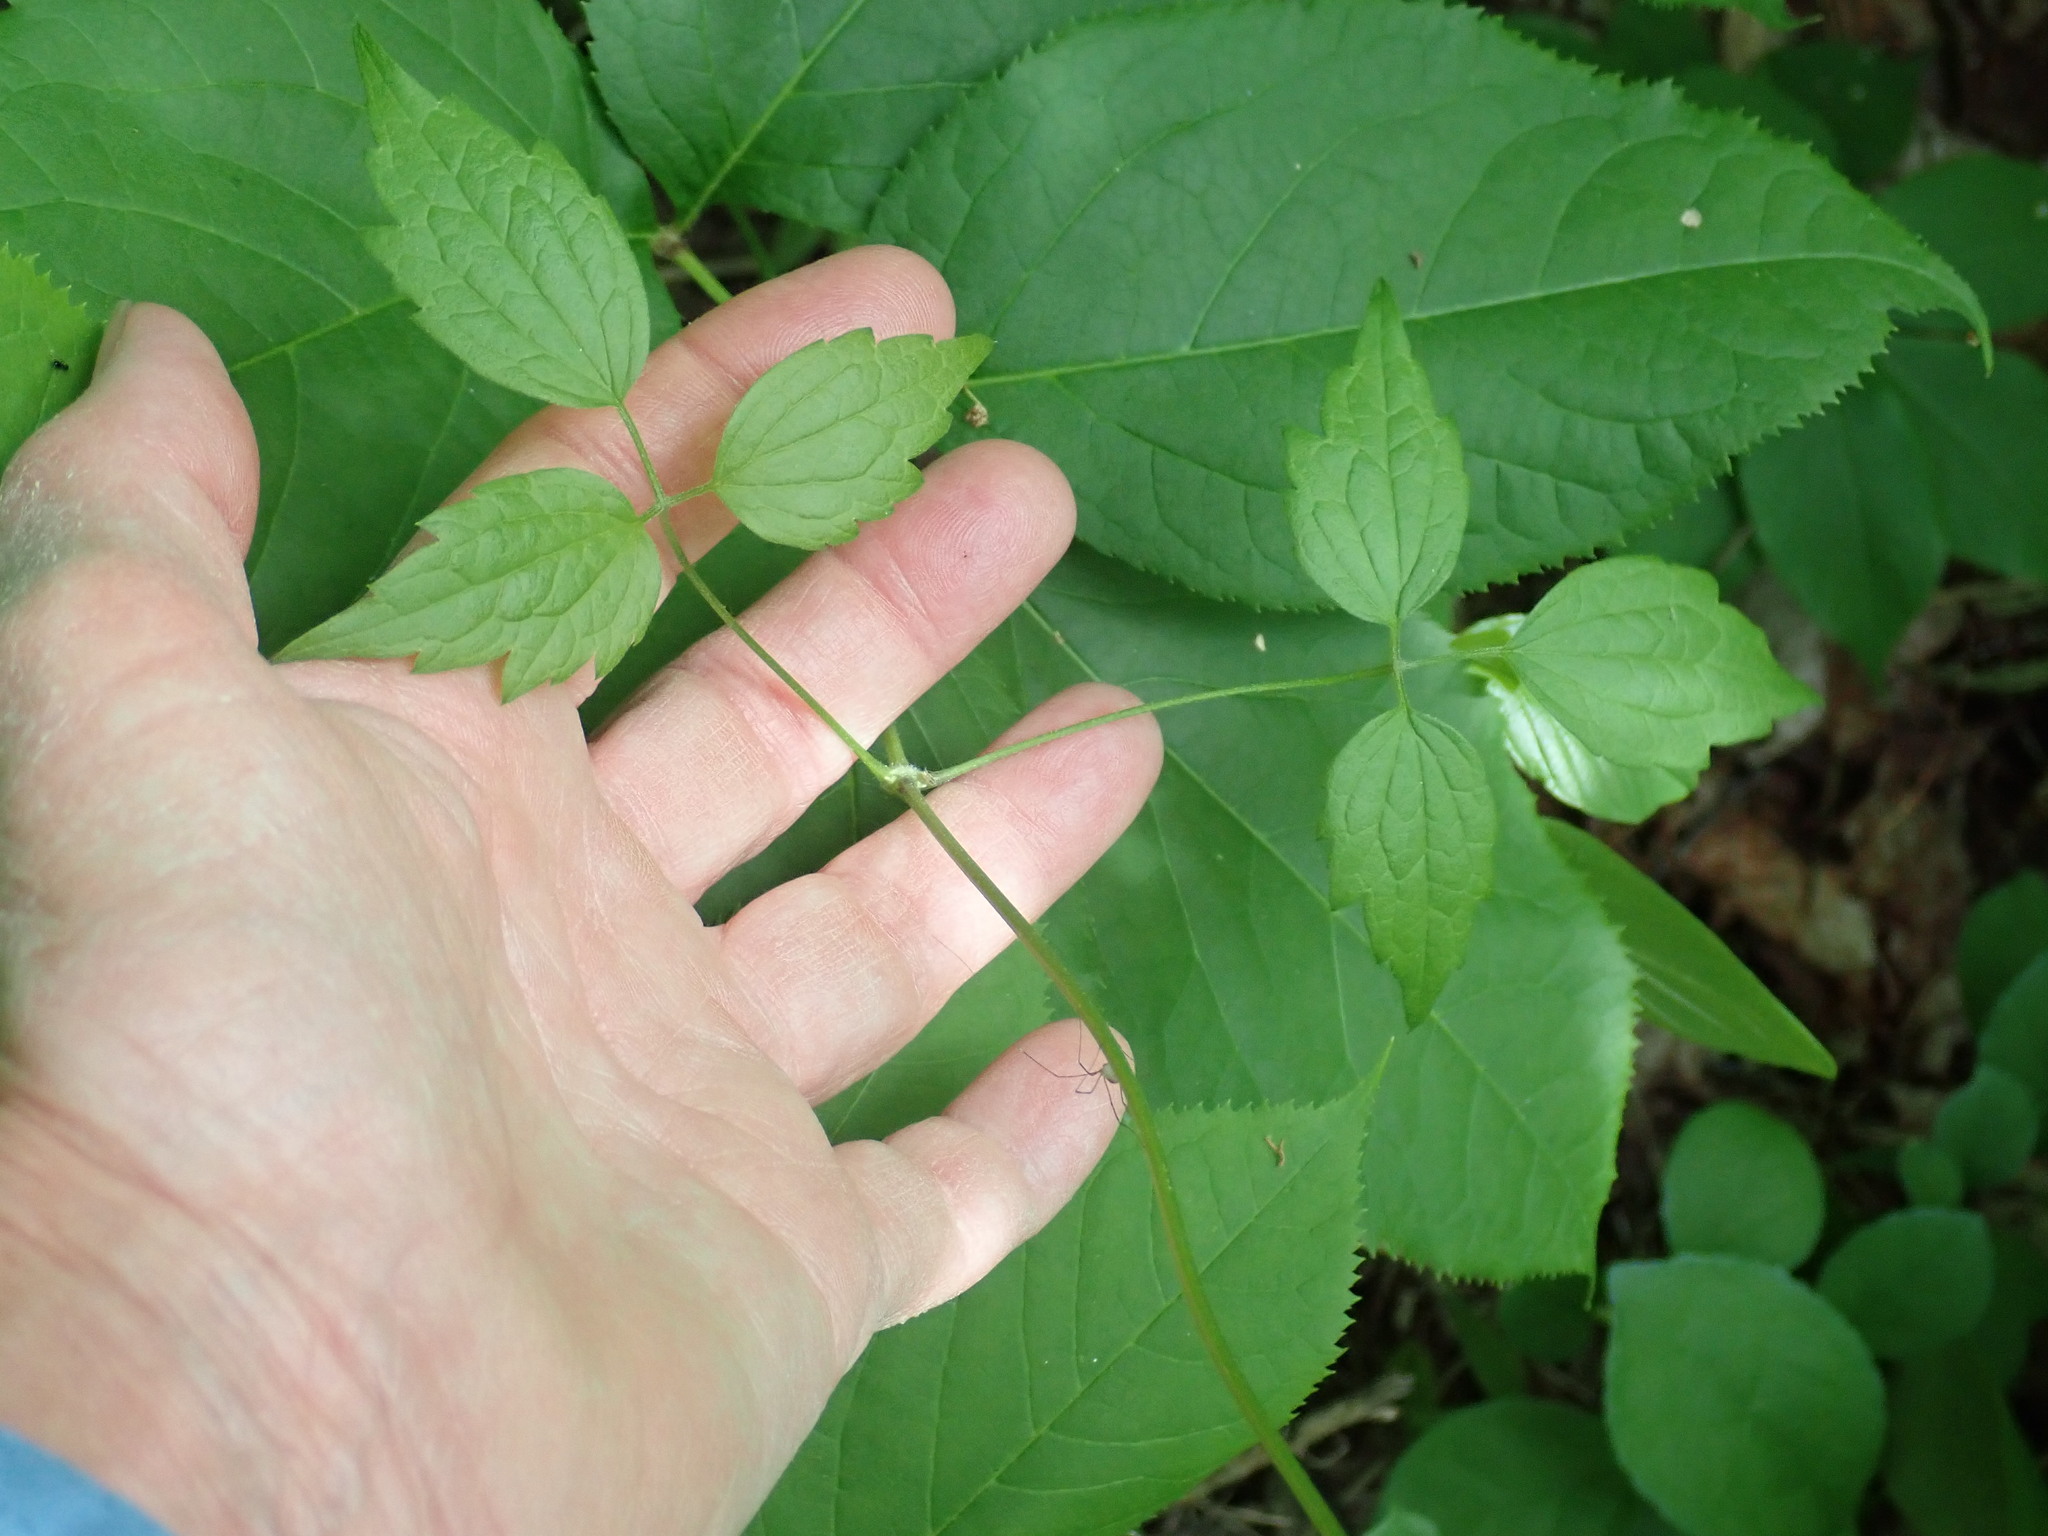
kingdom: Plantae
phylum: Tracheophyta
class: Magnoliopsida
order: Ranunculales
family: Ranunculaceae
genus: Clematis
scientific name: Clematis virginiana
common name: Virgin's-bower
